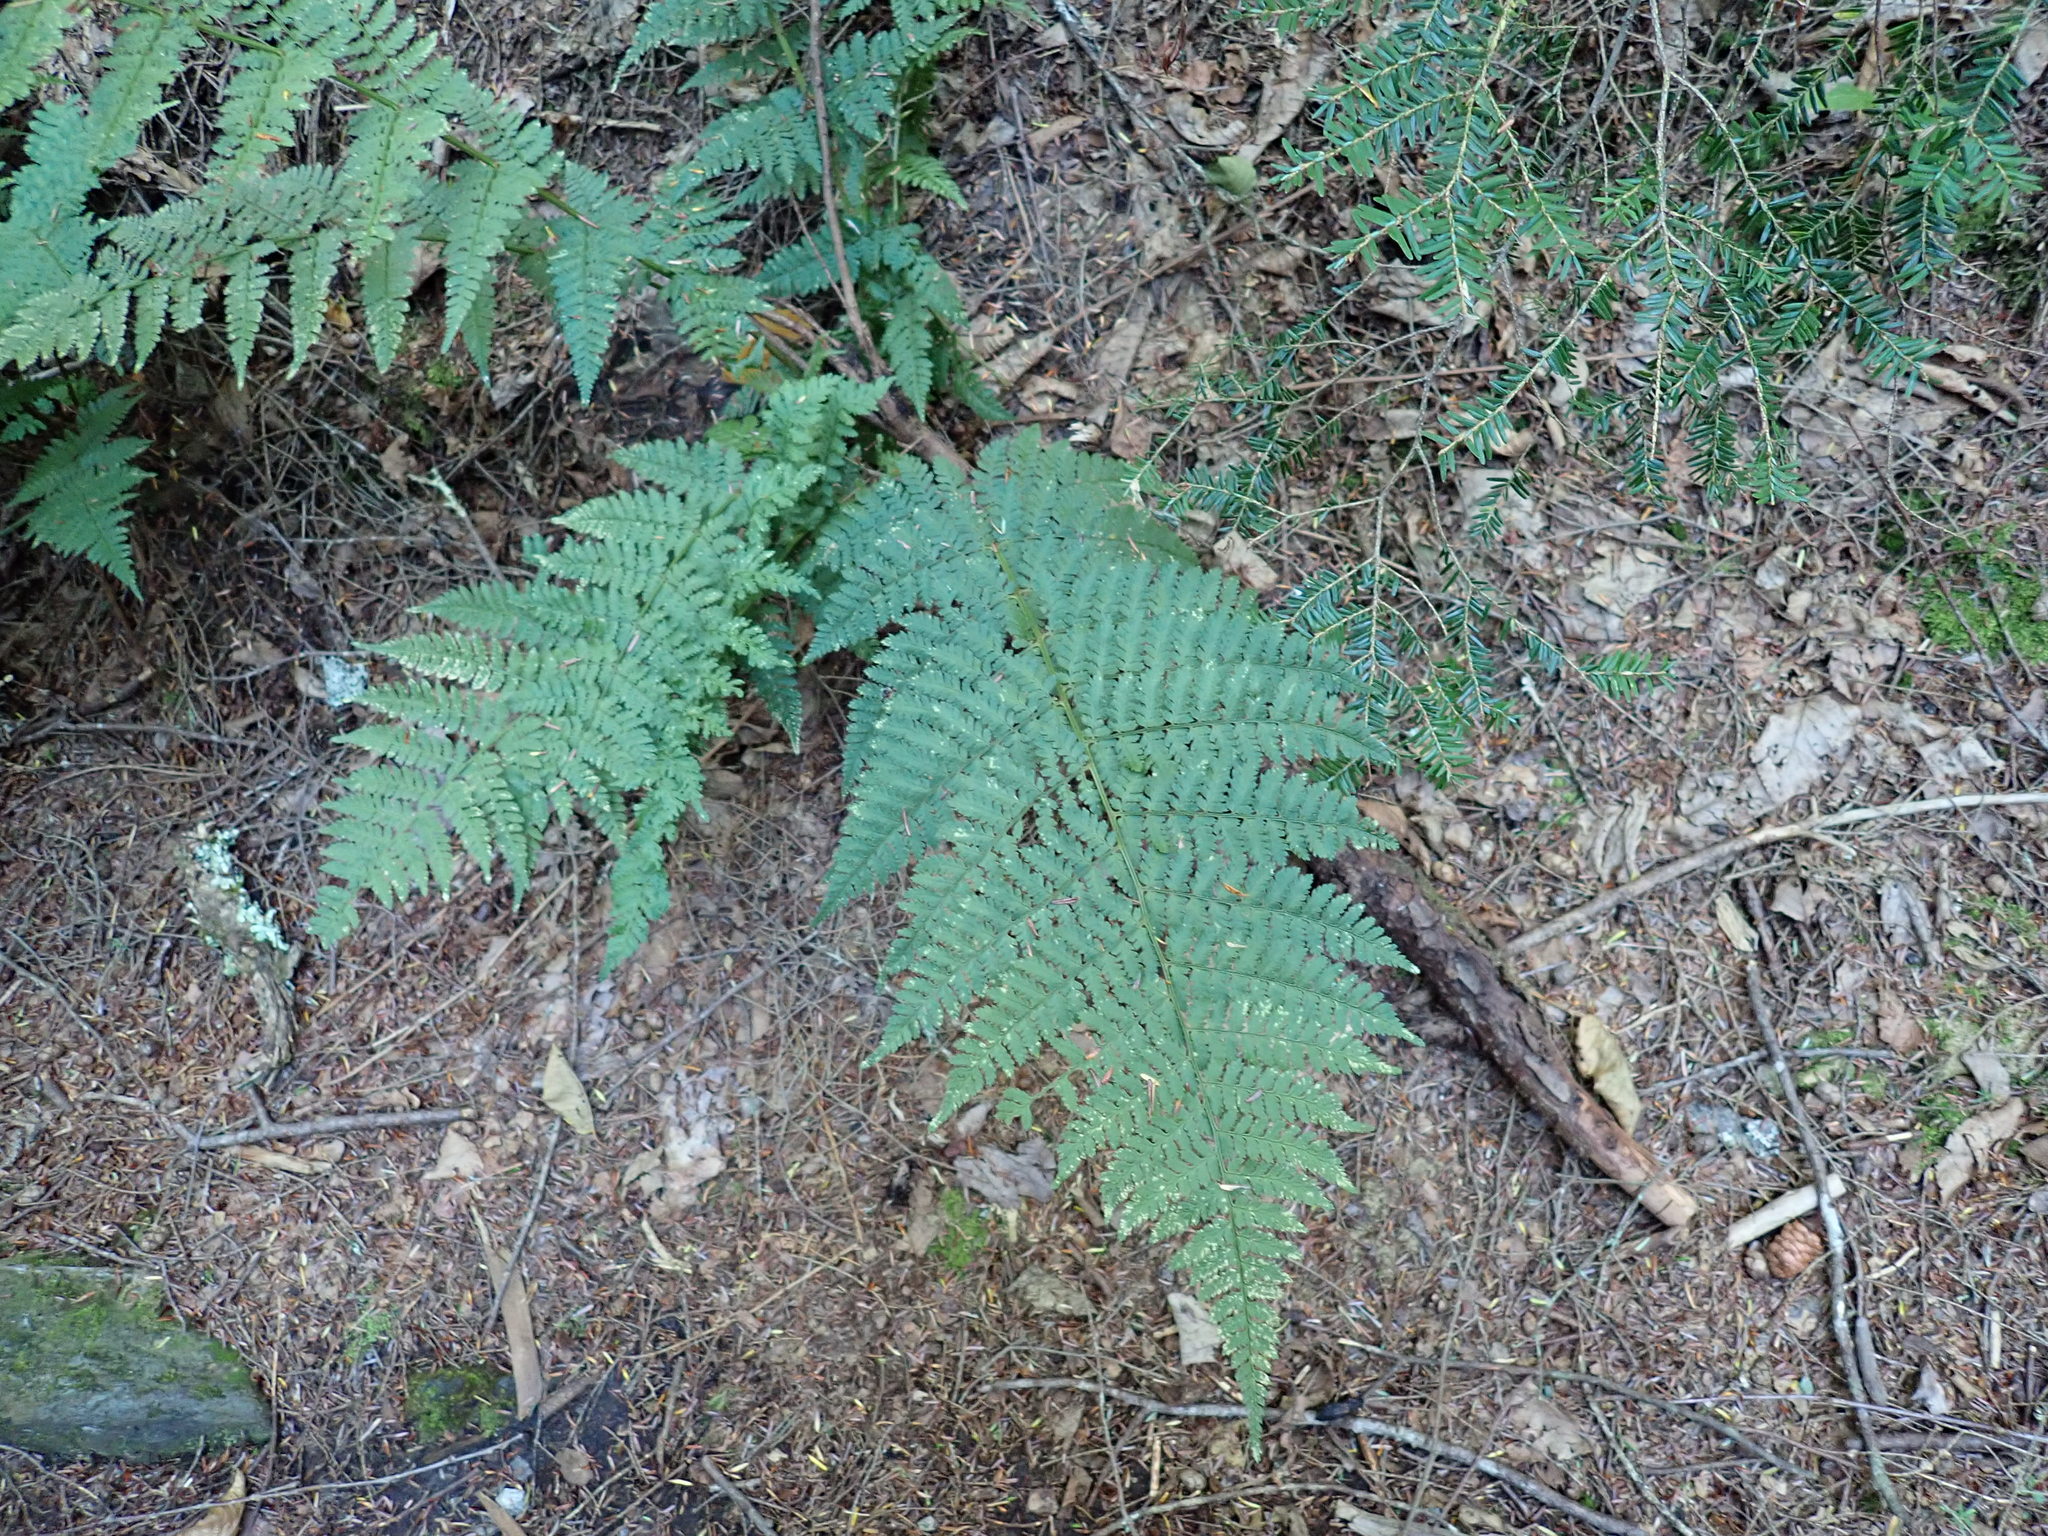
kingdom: Plantae
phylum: Tracheophyta
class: Polypodiopsida
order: Polypodiales
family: Dryopteridaceae
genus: Dryopteris
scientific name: Dryopteris intermedia
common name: Evergreen wood fern
